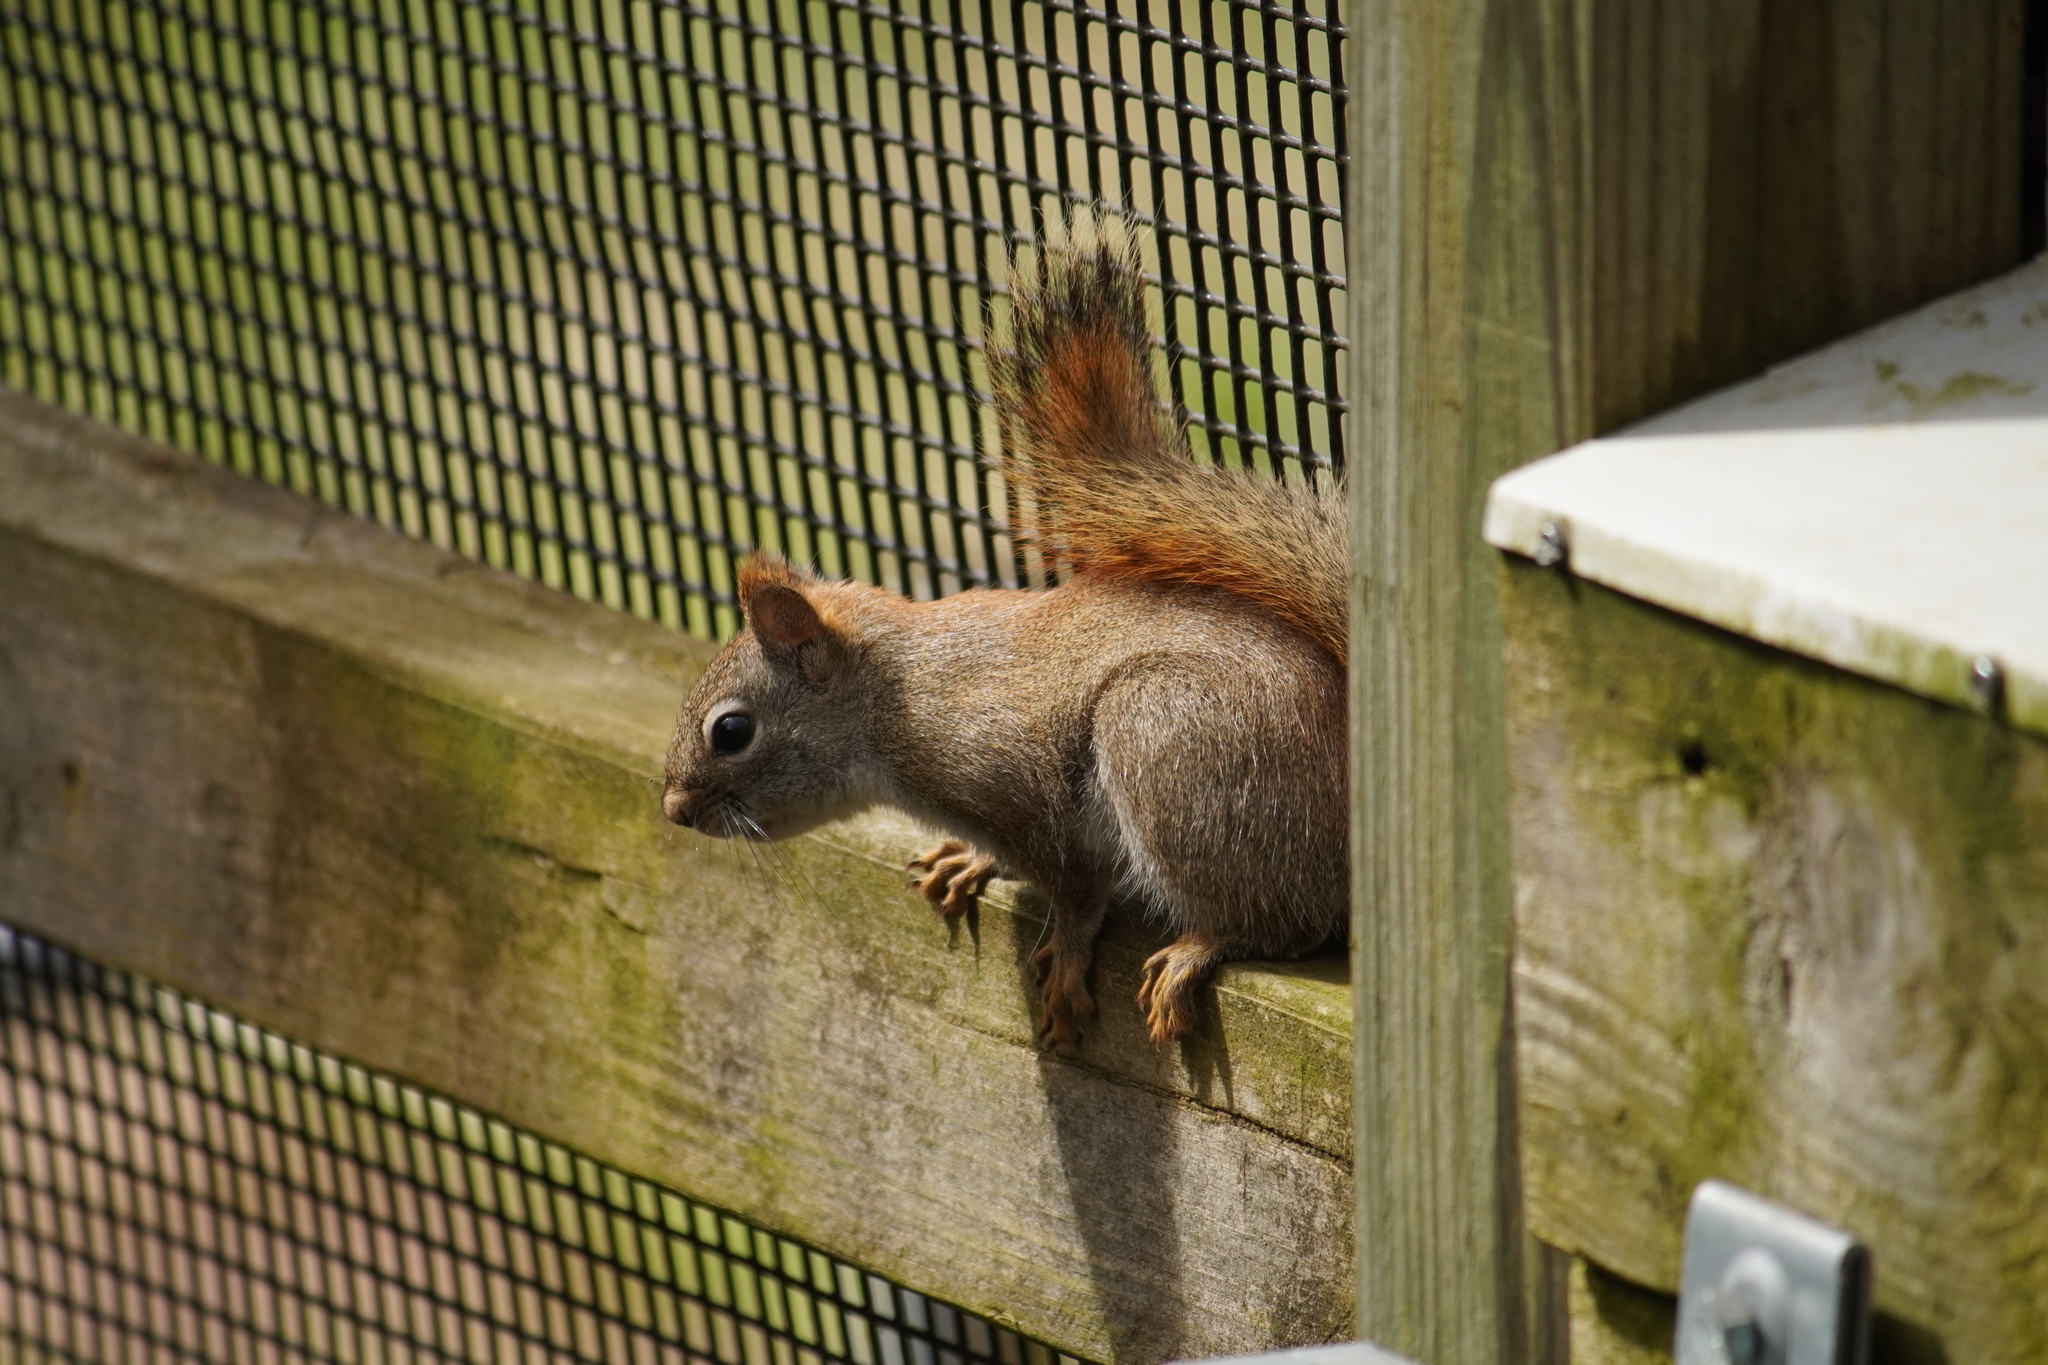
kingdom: Animalia
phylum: Chordata
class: Mammalia
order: Rodentia
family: Sciuridae
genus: Tamiasciurus
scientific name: Tamiasciurus hudsonicus
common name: Red squirrel
